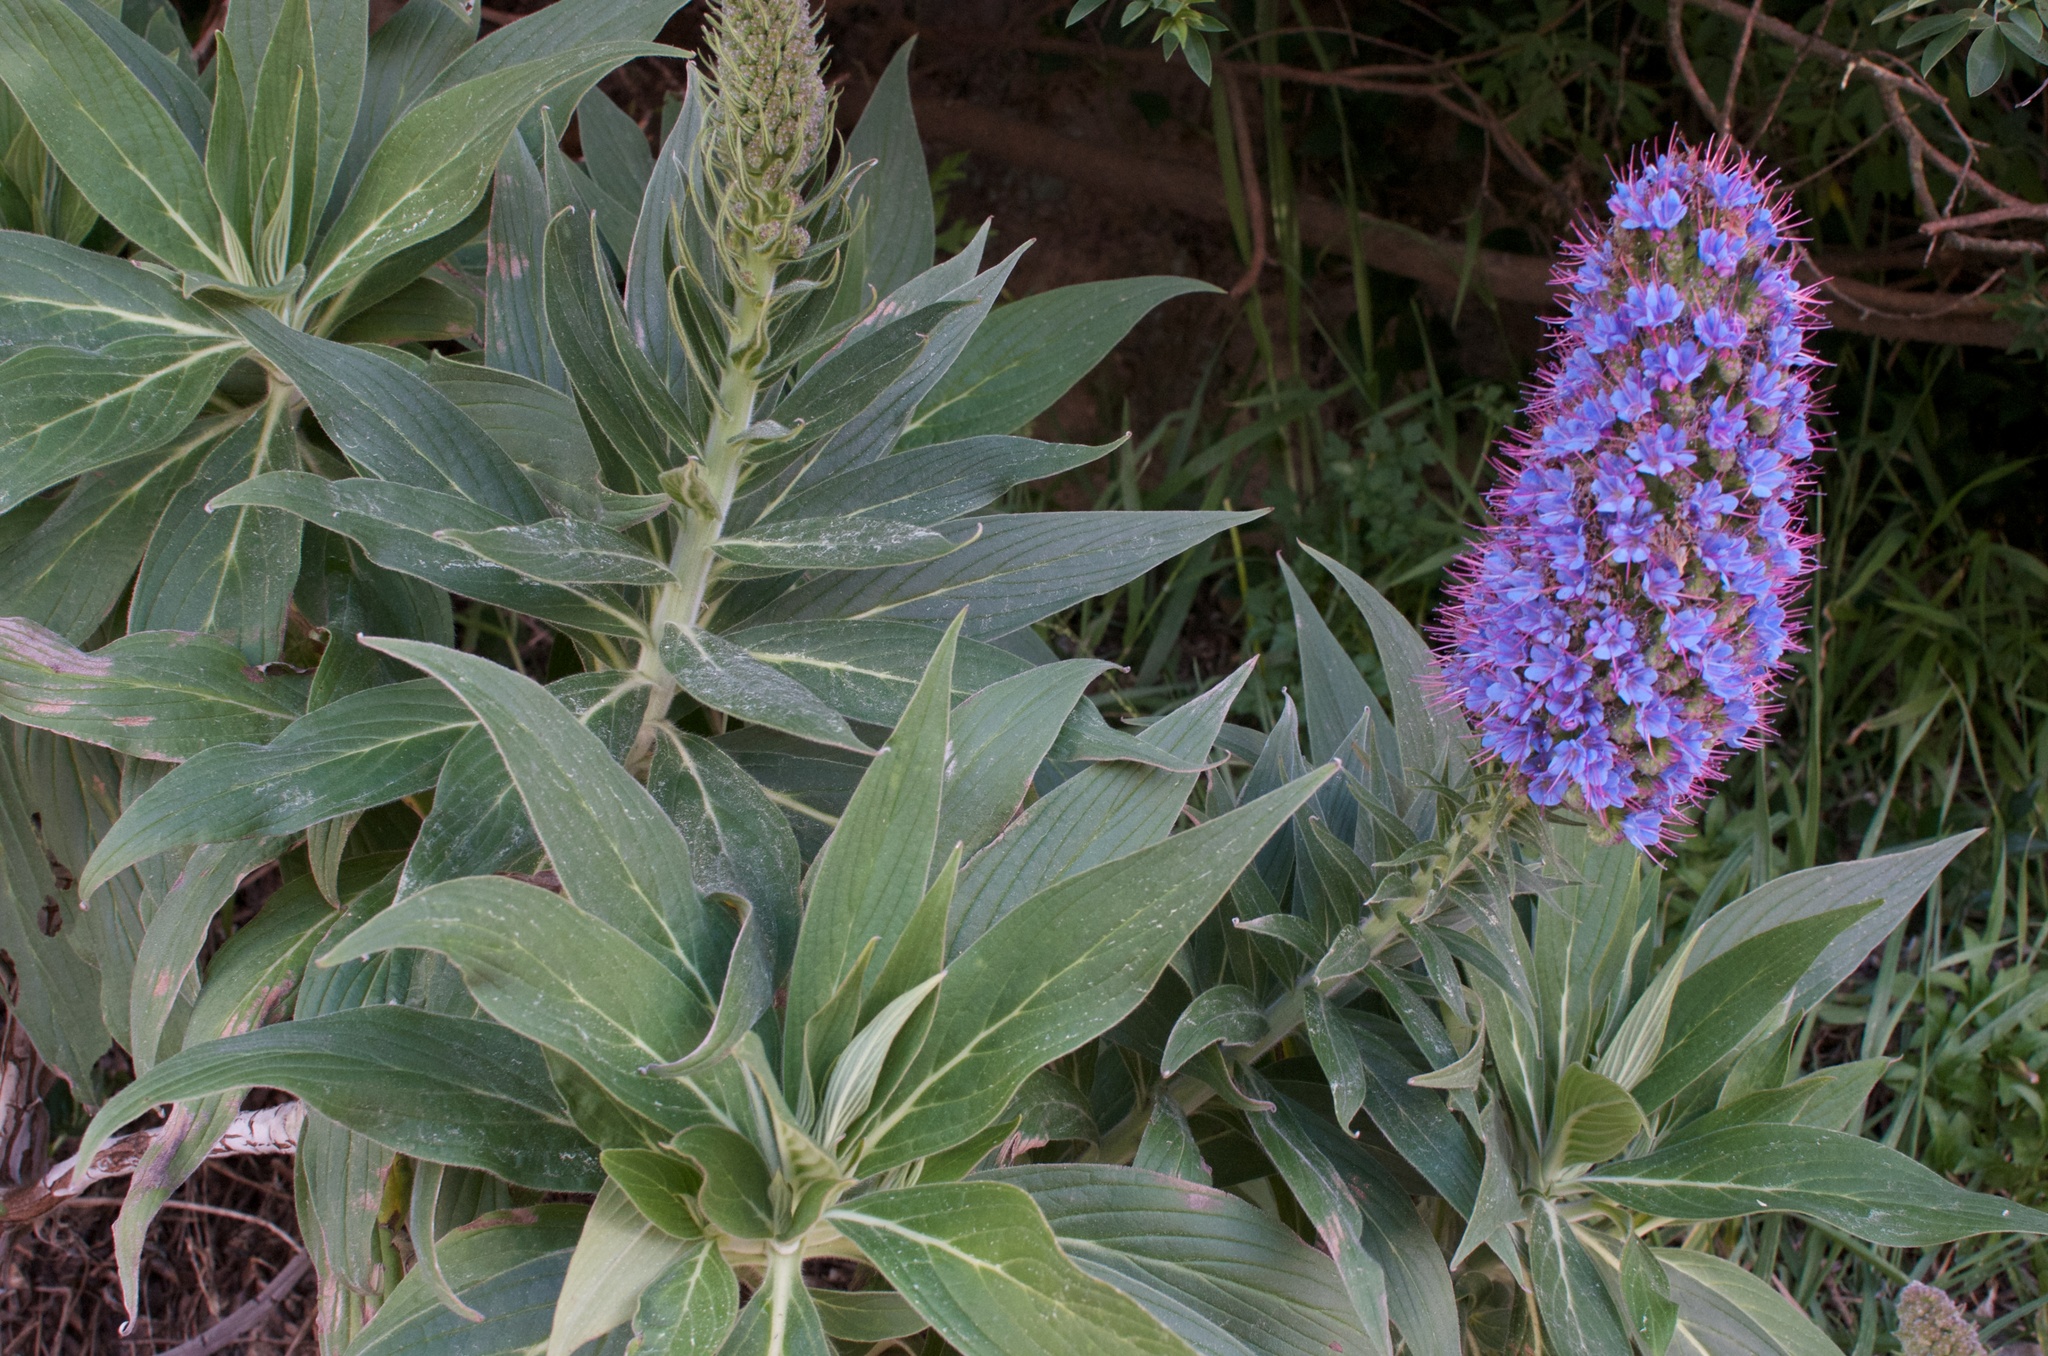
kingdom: Plantae
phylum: Tracheophyta
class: Magnoliopsida
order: Boraginales
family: Boraginaceae
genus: Echium
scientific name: Echium candicans
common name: Pride of madeira
